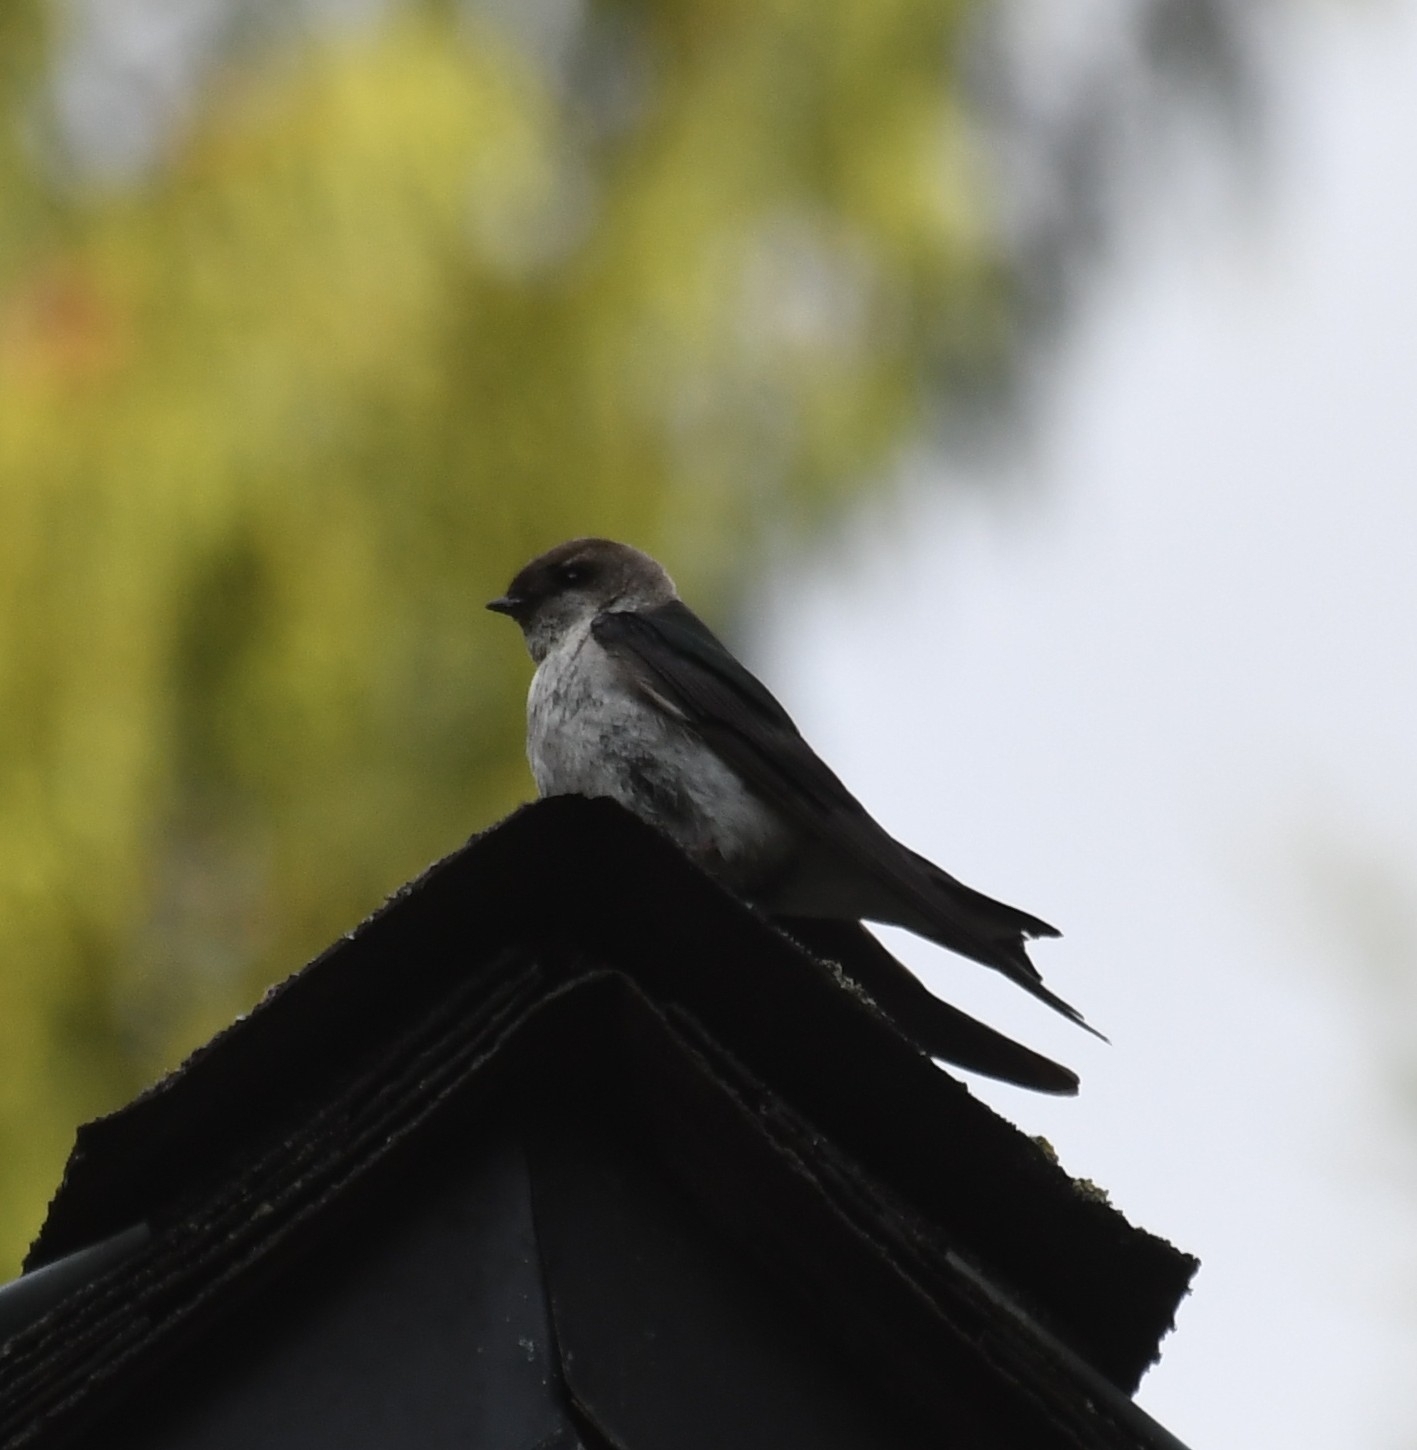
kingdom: Animalia
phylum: Chordata
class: Aves
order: Passeriformes
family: Hirundinidae
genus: Tachycineta
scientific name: Tachycineta thalassina
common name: Violet-green swallow
